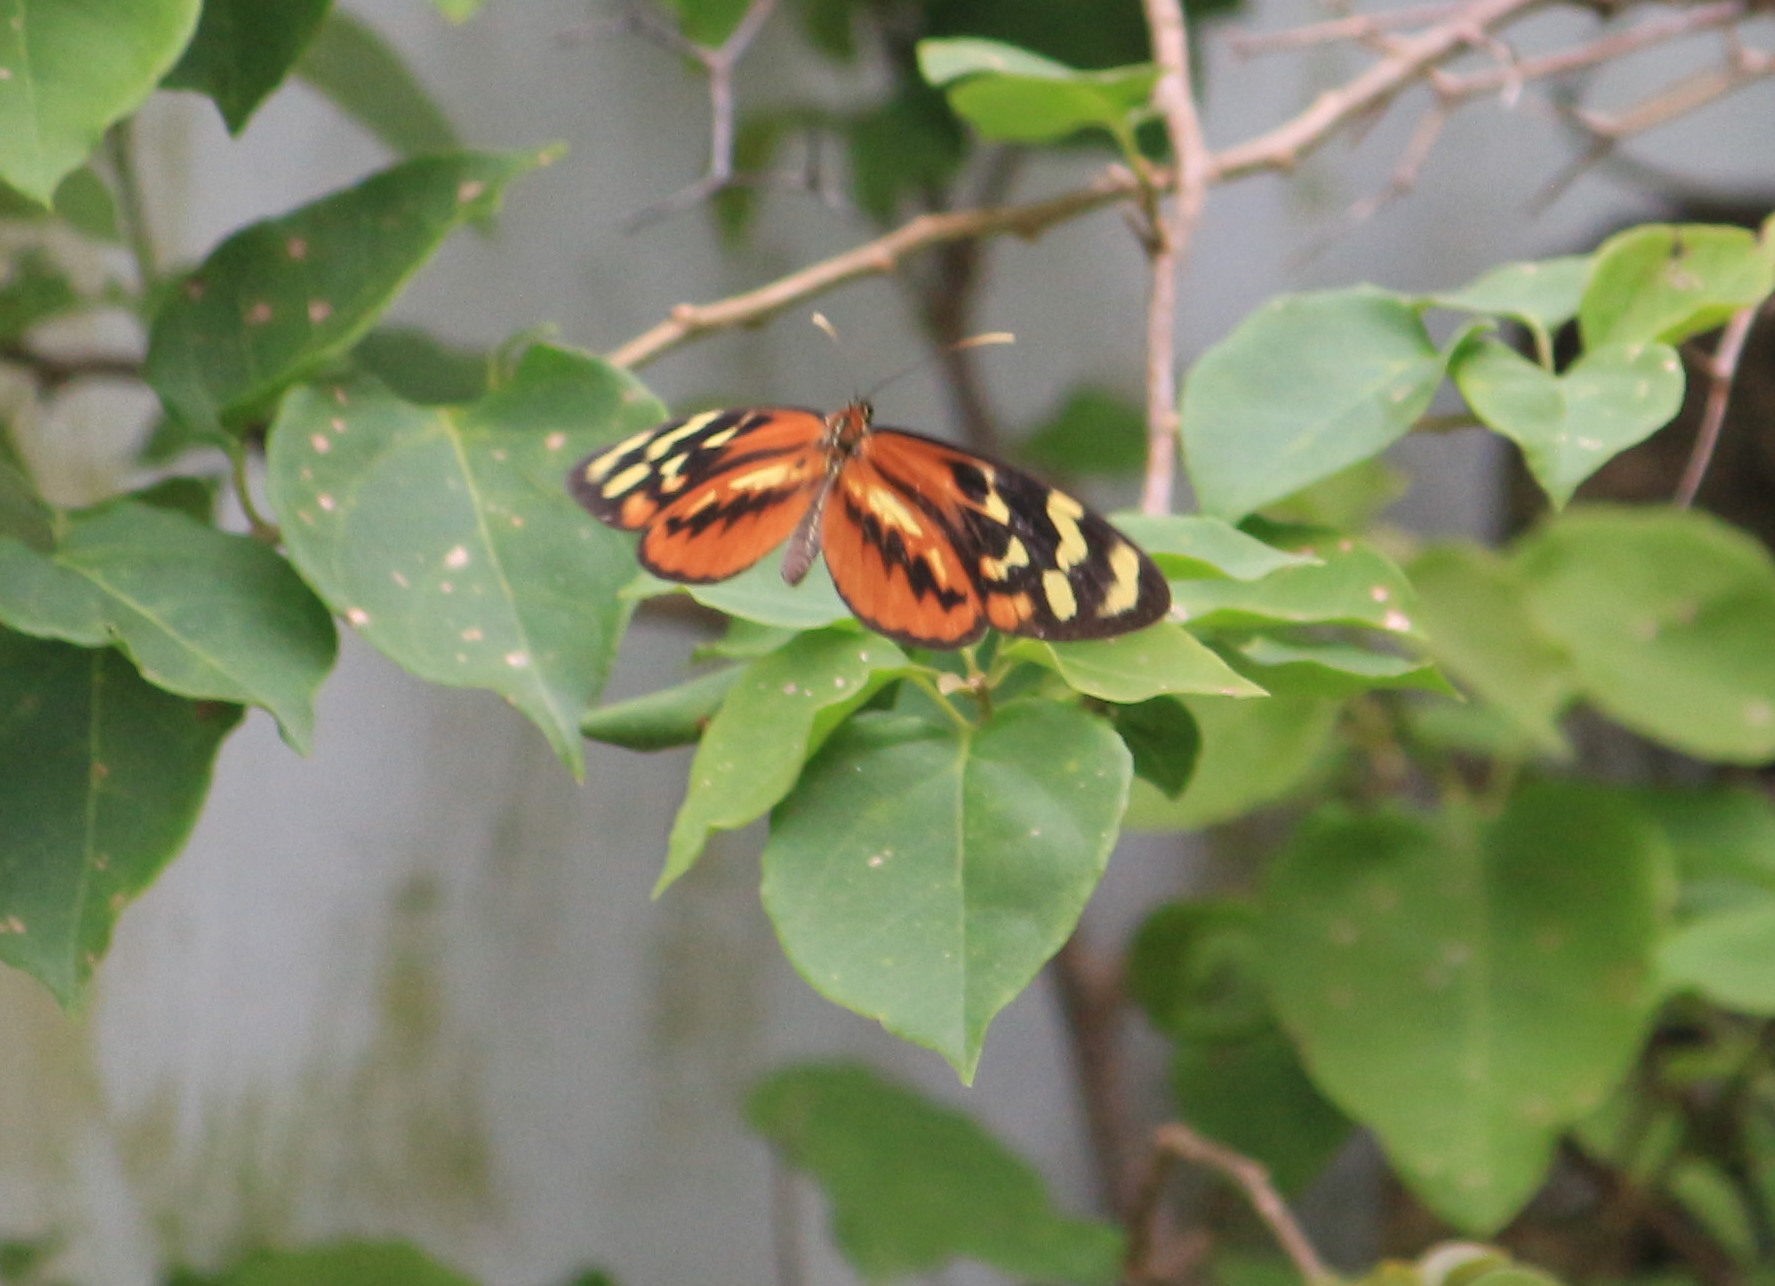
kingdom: Animalia
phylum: Arthropoda
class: Insecta
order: Lepidoptera
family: Nymphalidae
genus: Mechanitis
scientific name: Mechanitis polymnia
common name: Disturbed tigerwing
